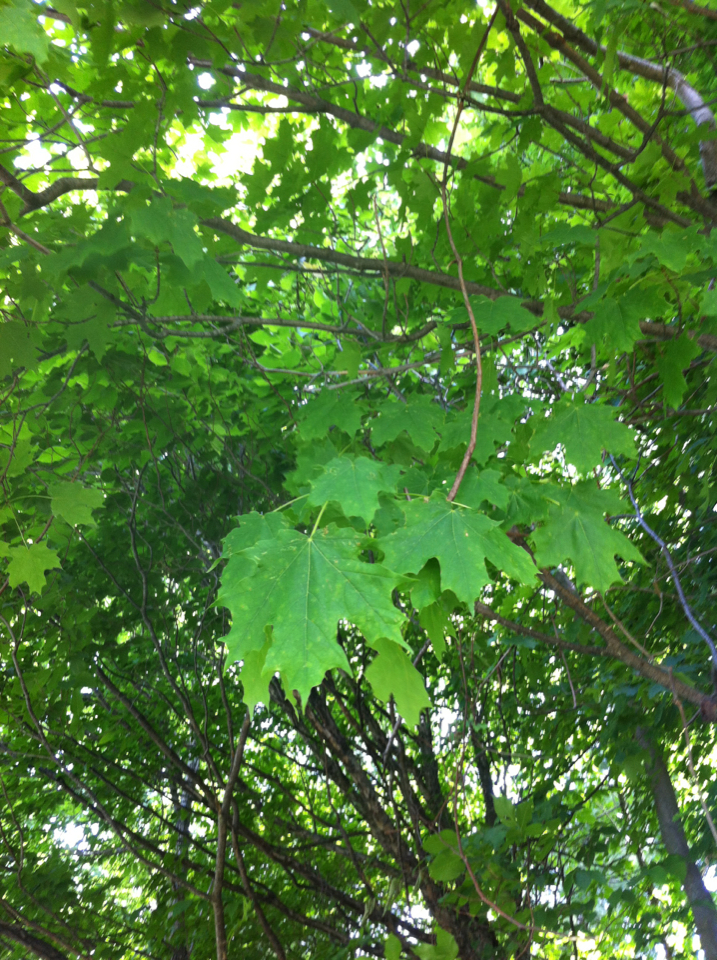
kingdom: Plantae
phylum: Tracheophyta
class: Magnoliopsida
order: Sapindales
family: Sapindaceae
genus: Acer
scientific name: Acer saccharum
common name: Sugar maple
